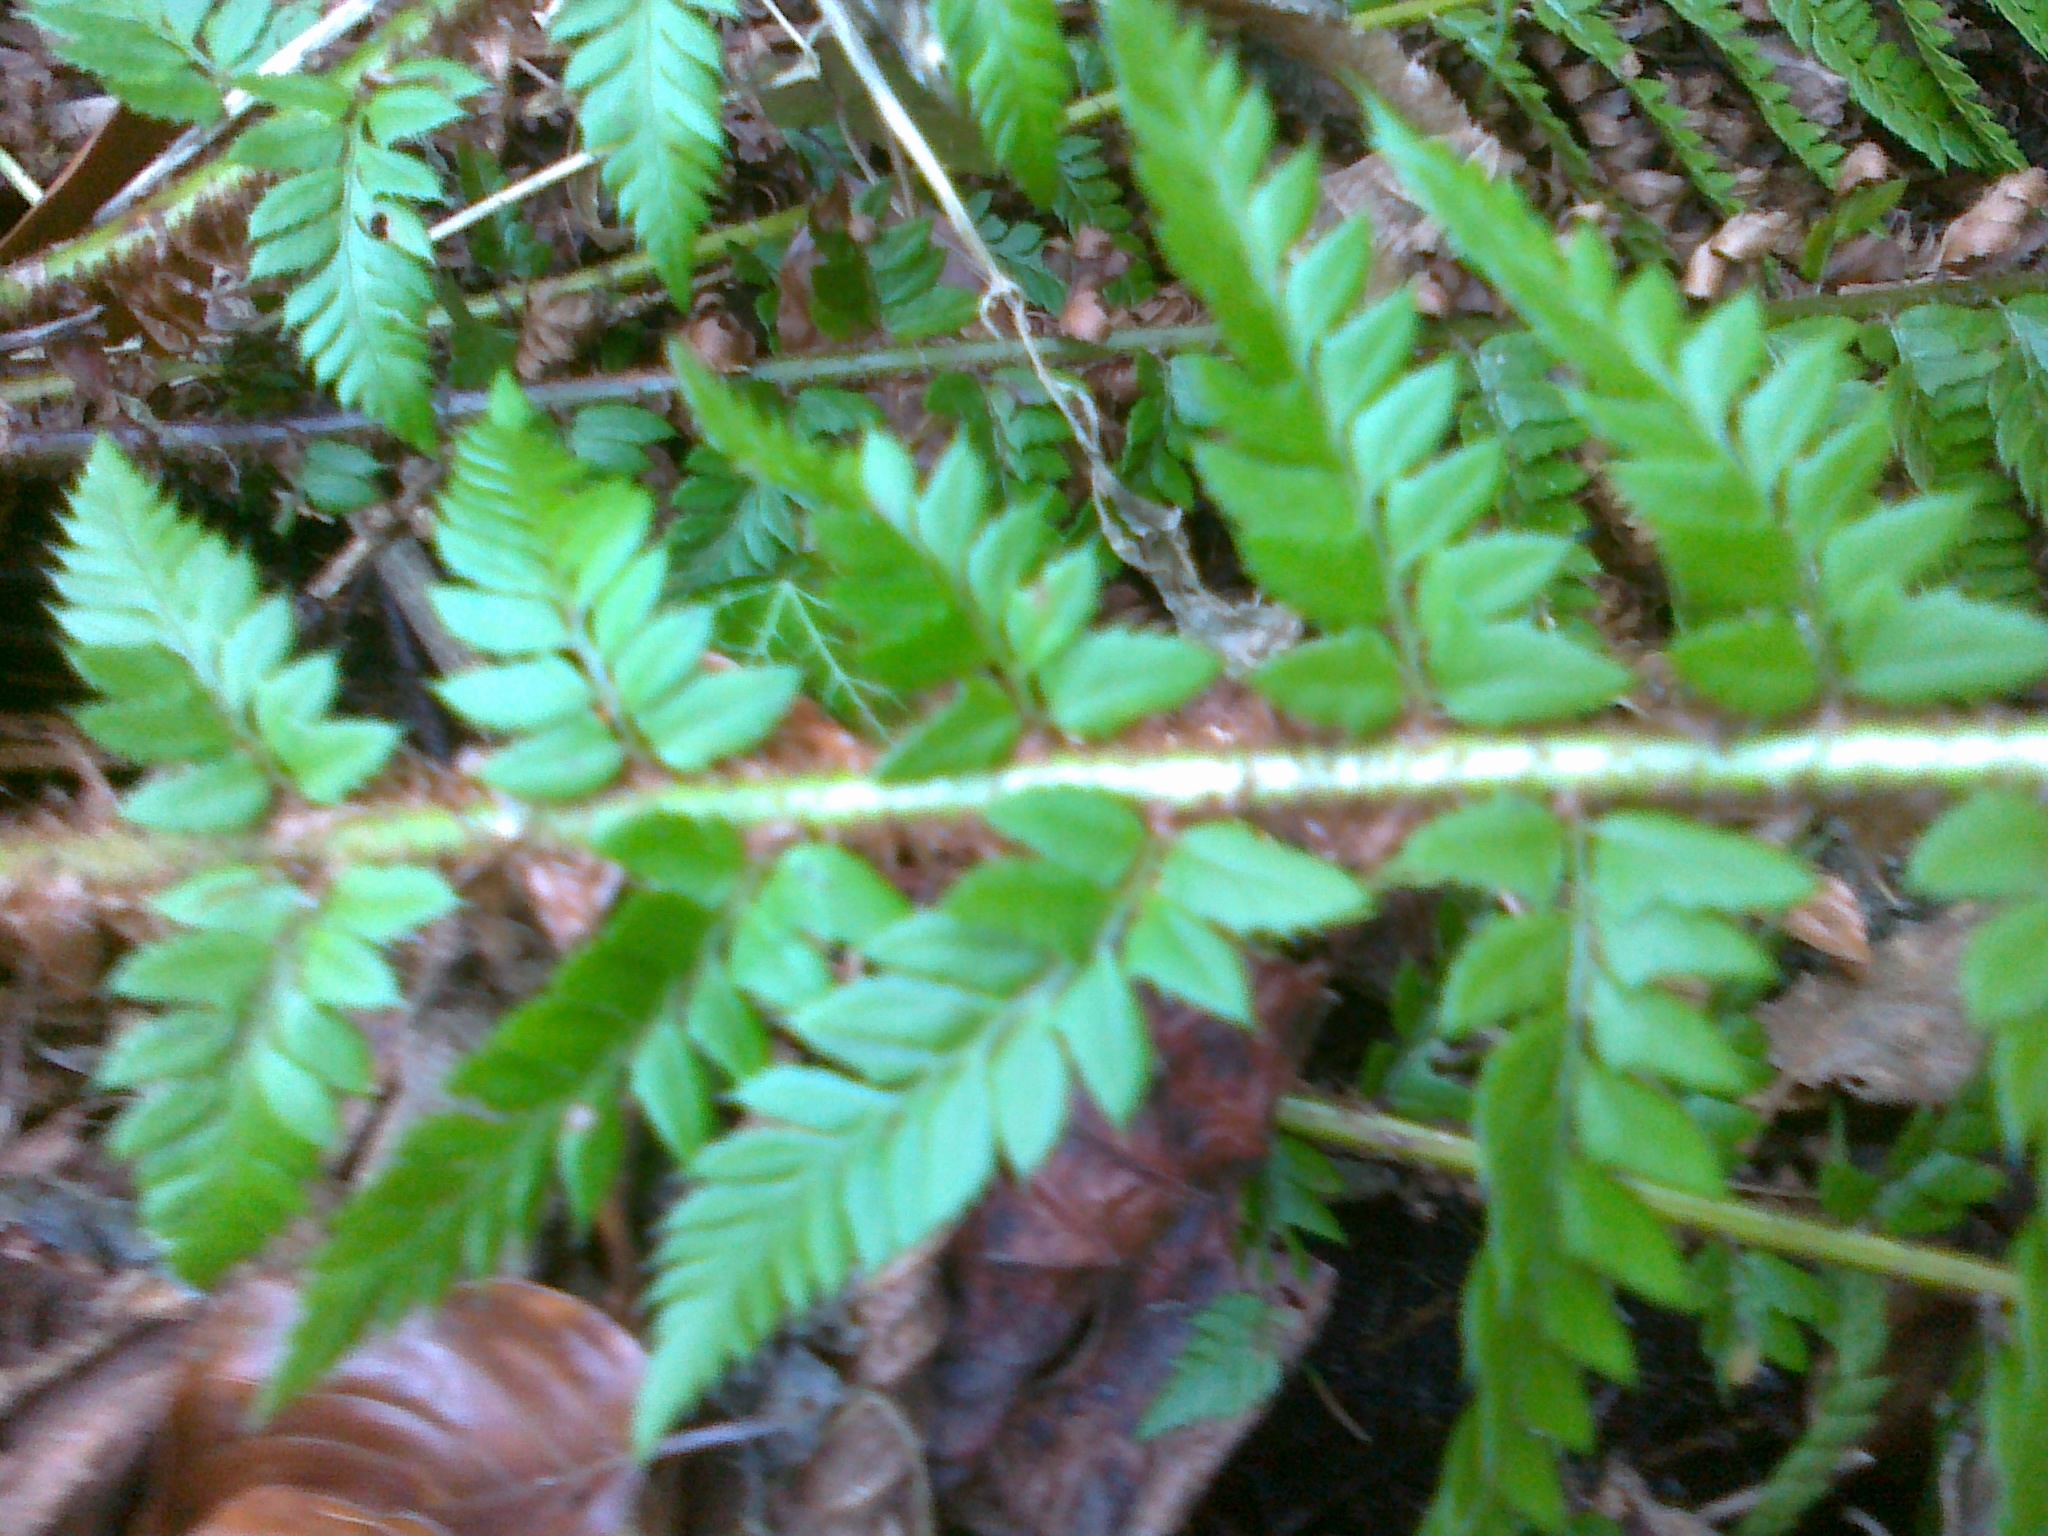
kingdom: Plantae
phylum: Tracheophyta
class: Polypodiopsida
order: Polypodiales
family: Dryopteridaceae
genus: Polystichum
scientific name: Polystichum aculeatum
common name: Hard shield-fern
